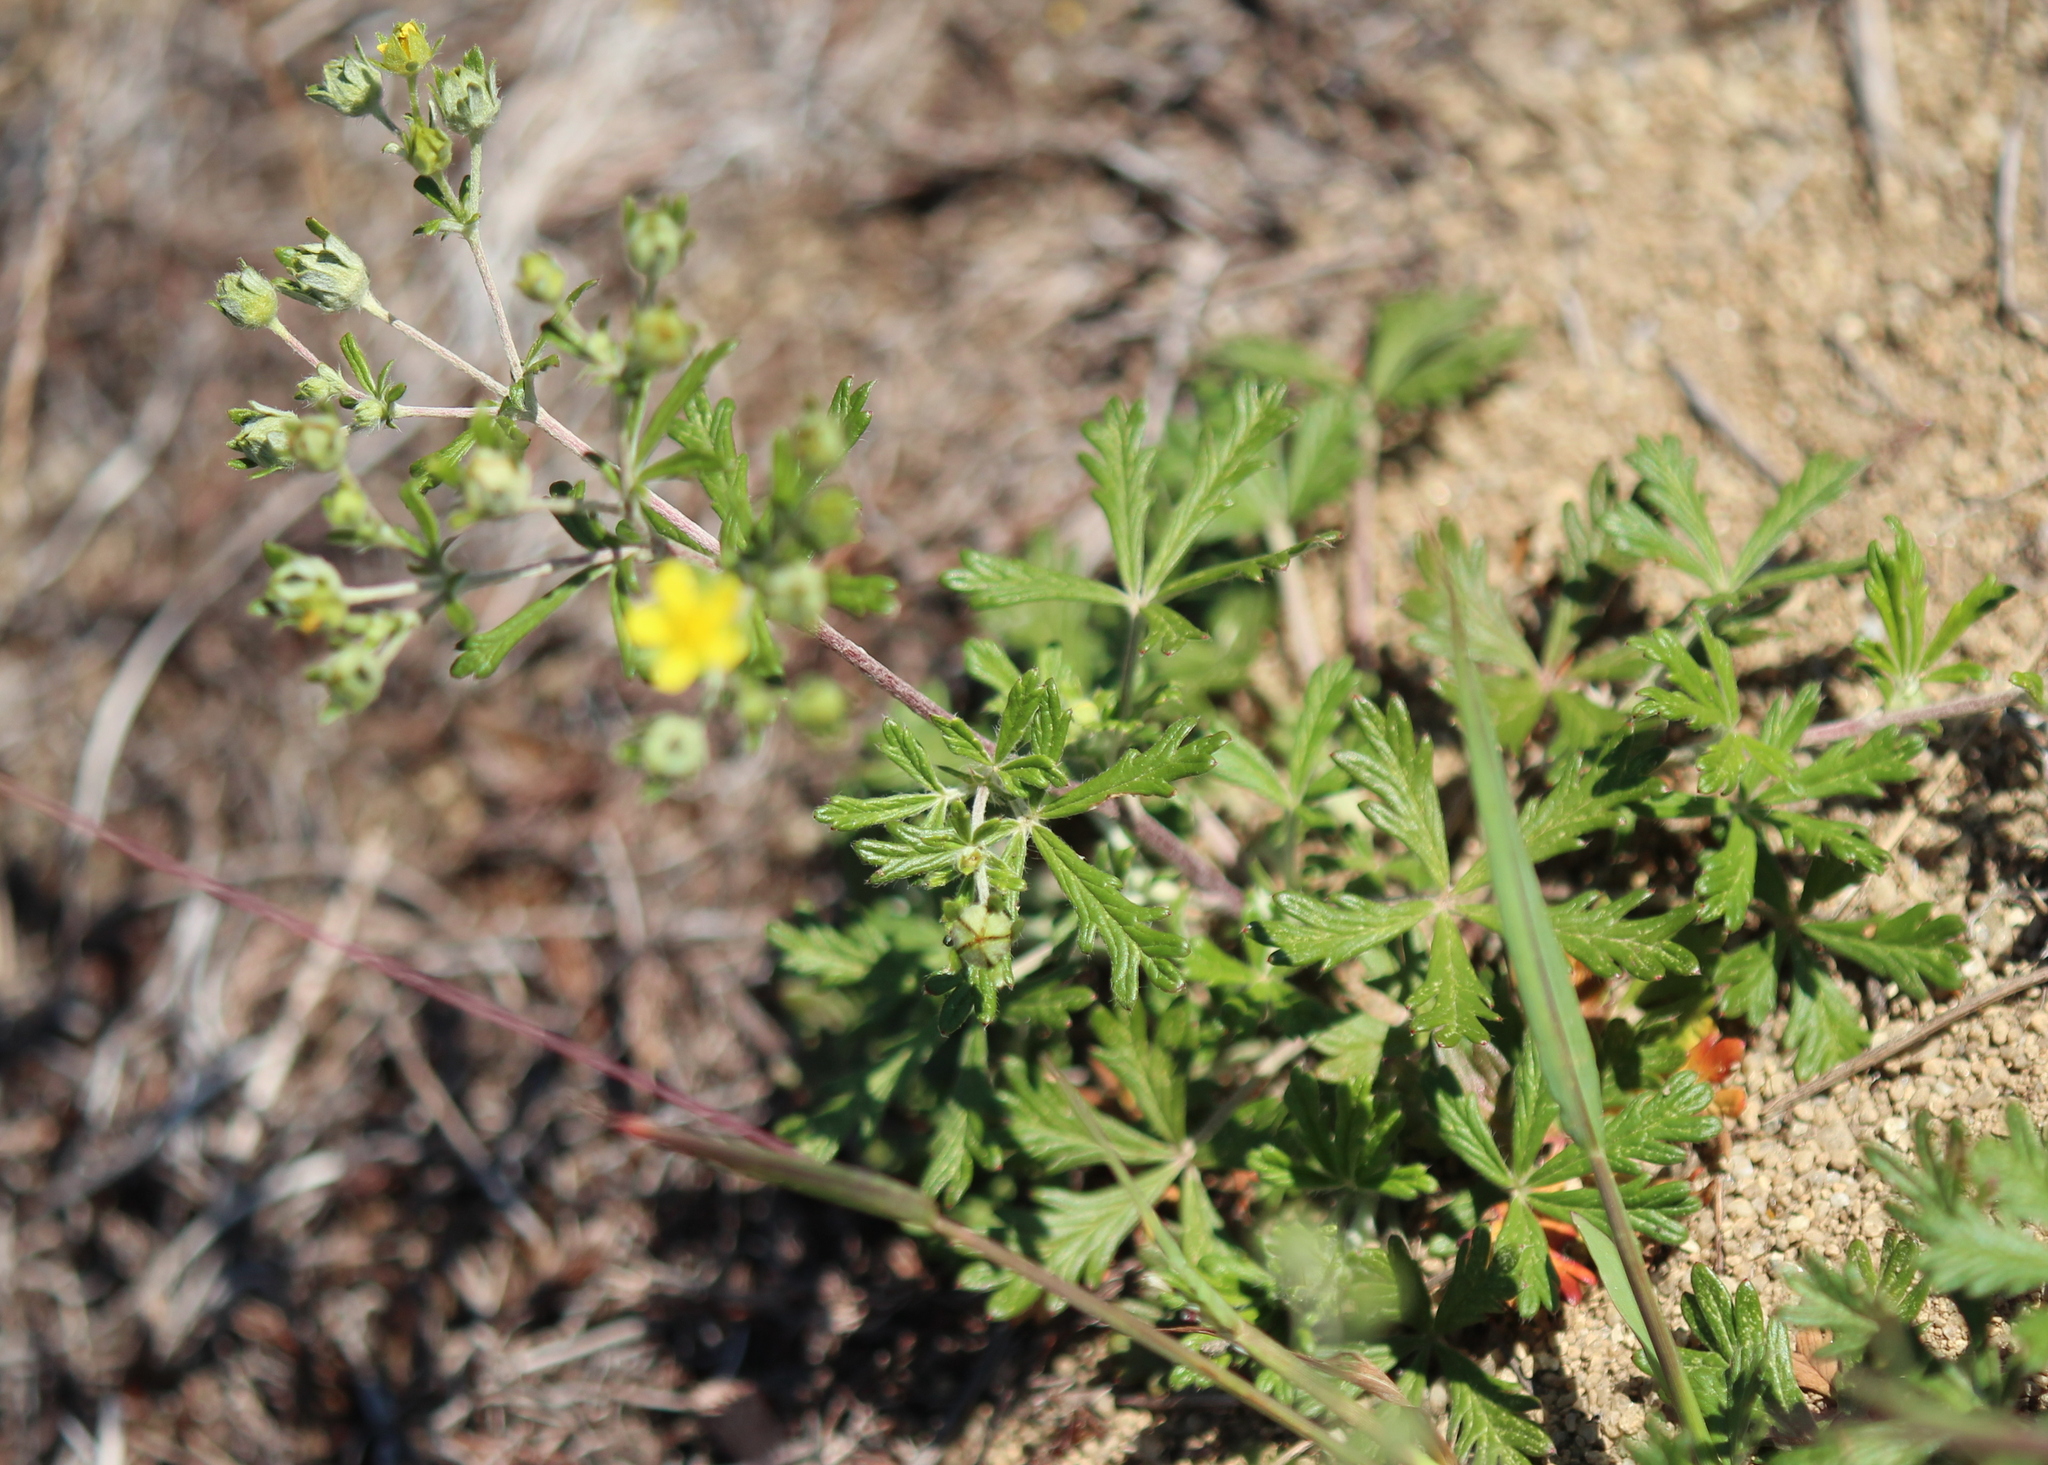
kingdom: Plantae
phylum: Tracheophyta
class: Magnoliopsida
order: Rosales
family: Rosaceae
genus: Potentilla
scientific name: Potentilla argentea
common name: Hoary cinquefoil
